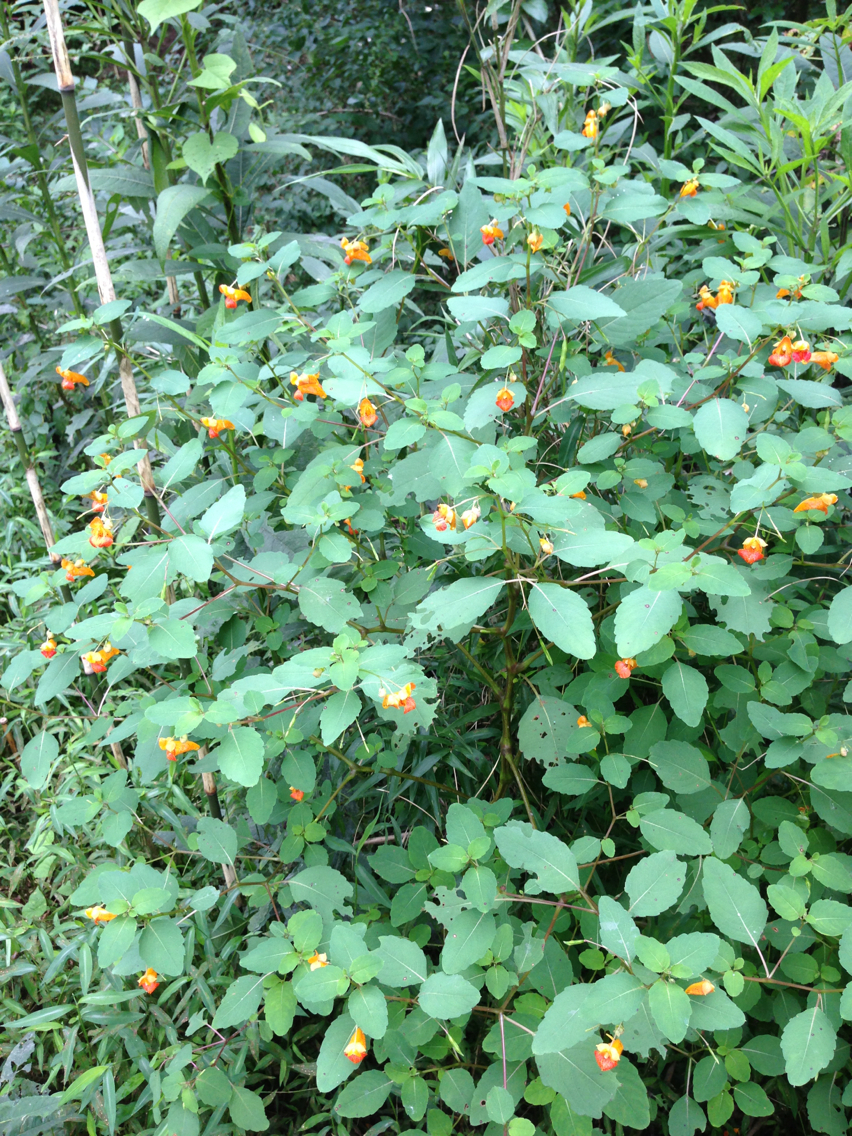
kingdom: Plantae
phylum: Tracheophyta
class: Magnoliopsida
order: Ericales
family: Balsaminaceae
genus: Impatiens
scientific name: Impatiens capensis
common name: Orange balsam
